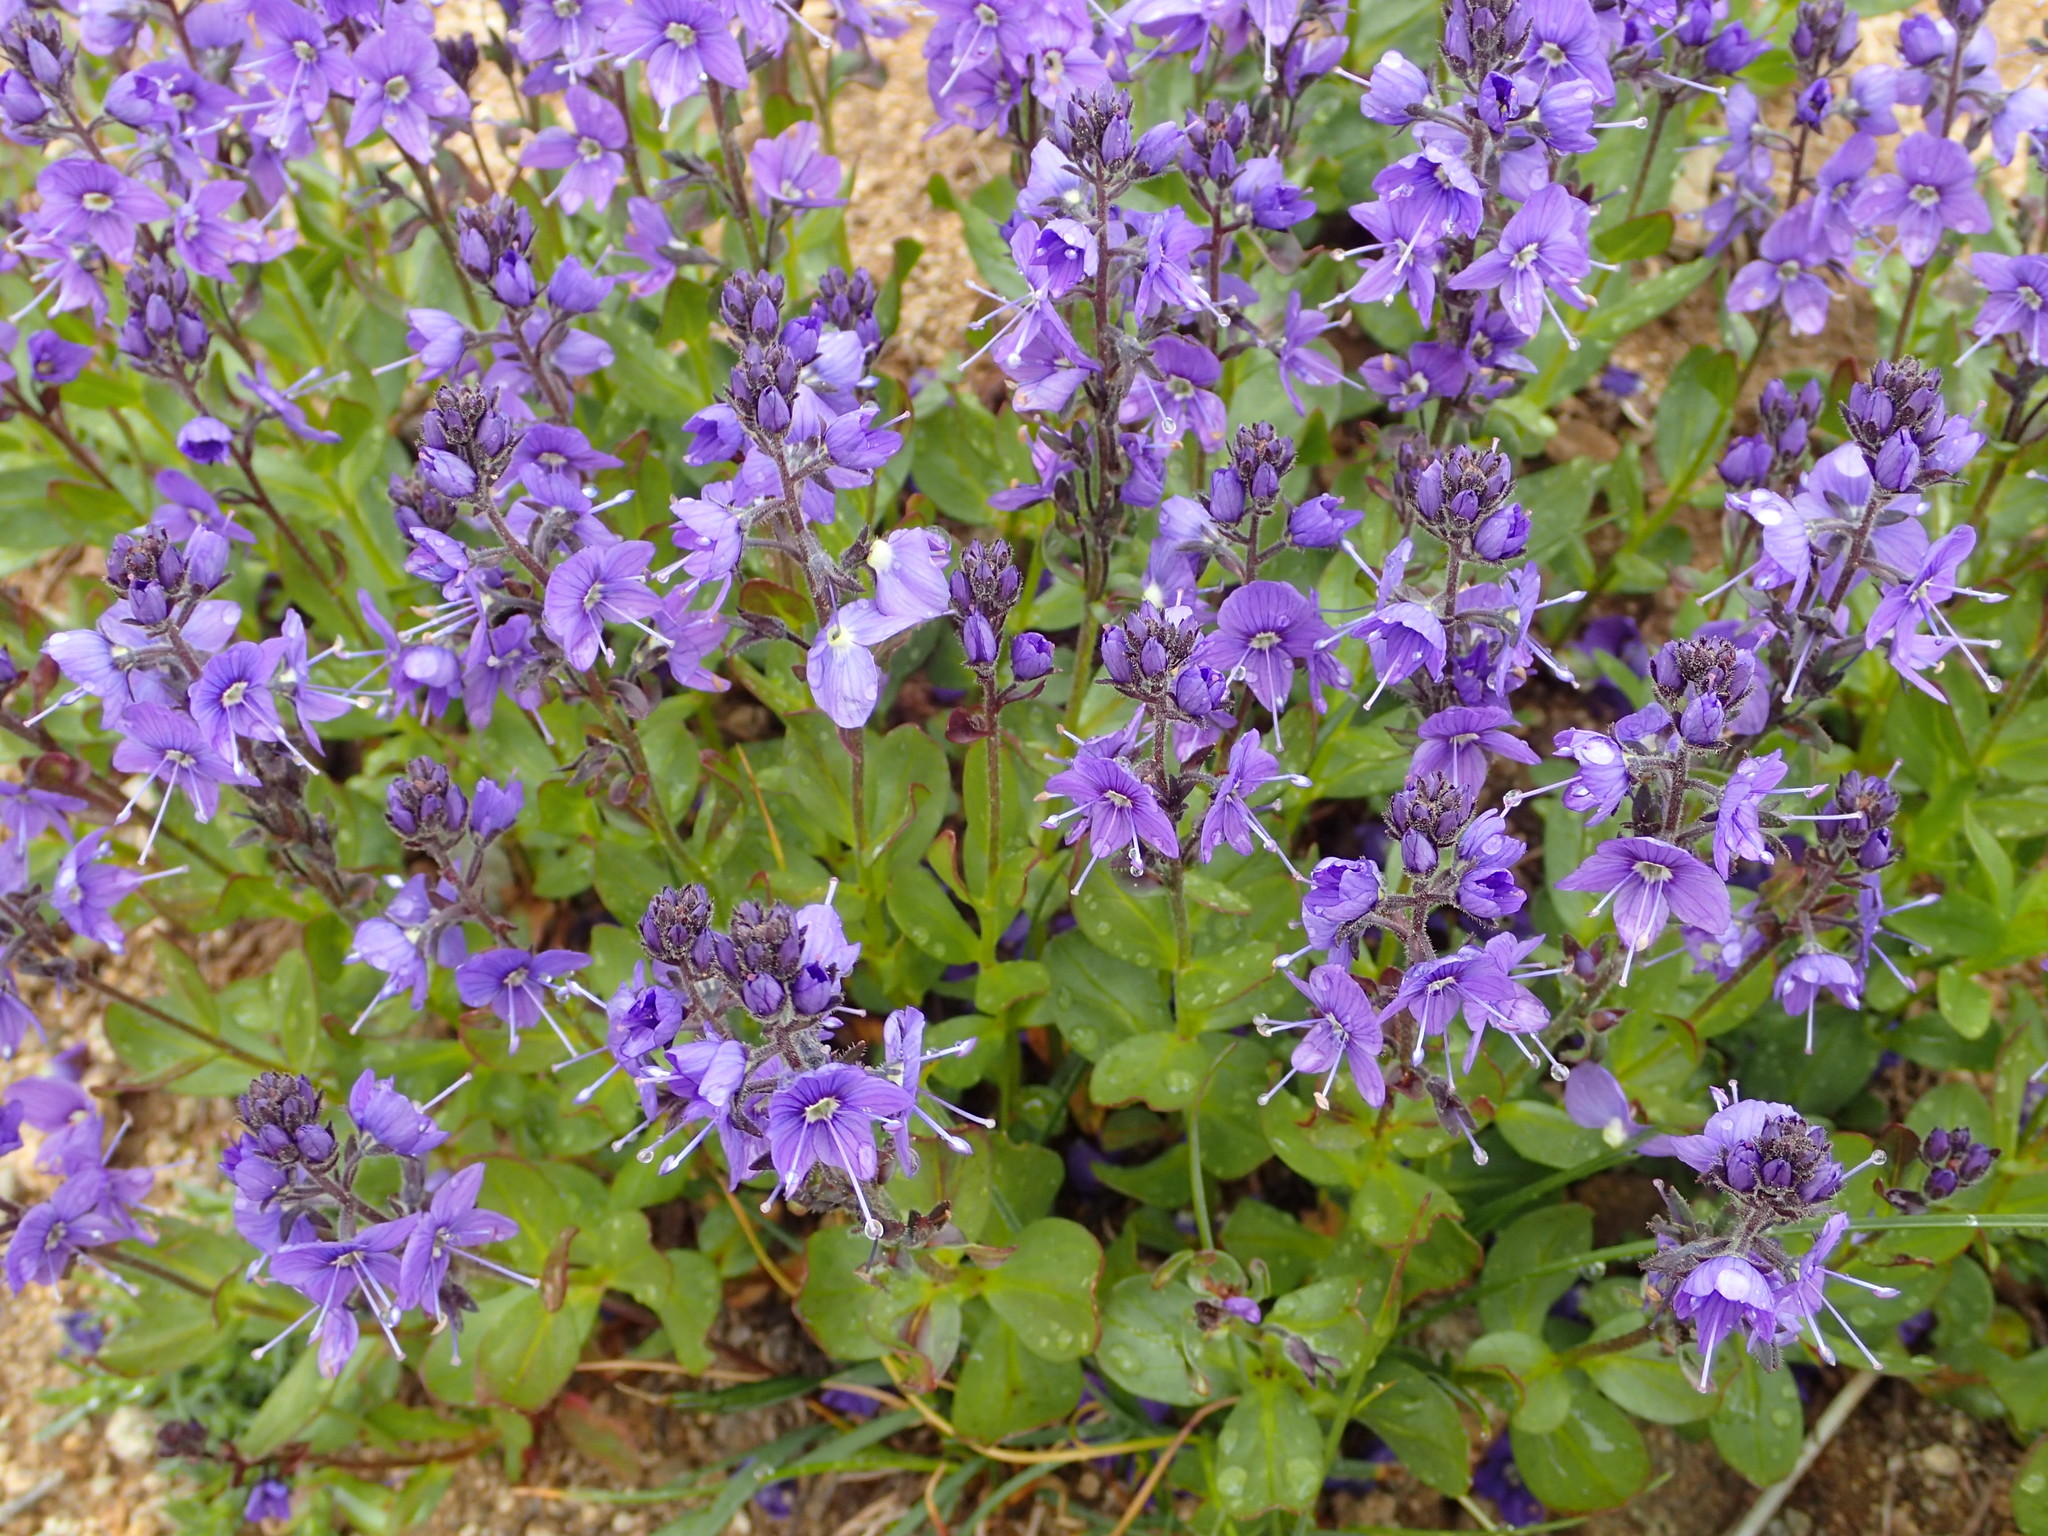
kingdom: Plantae
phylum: Tracheophyta
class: Magnoliopsida
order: Lamiales
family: Plantaginaceae
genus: Veronica
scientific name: Veronica cusickii
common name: Cusick's speedwell
